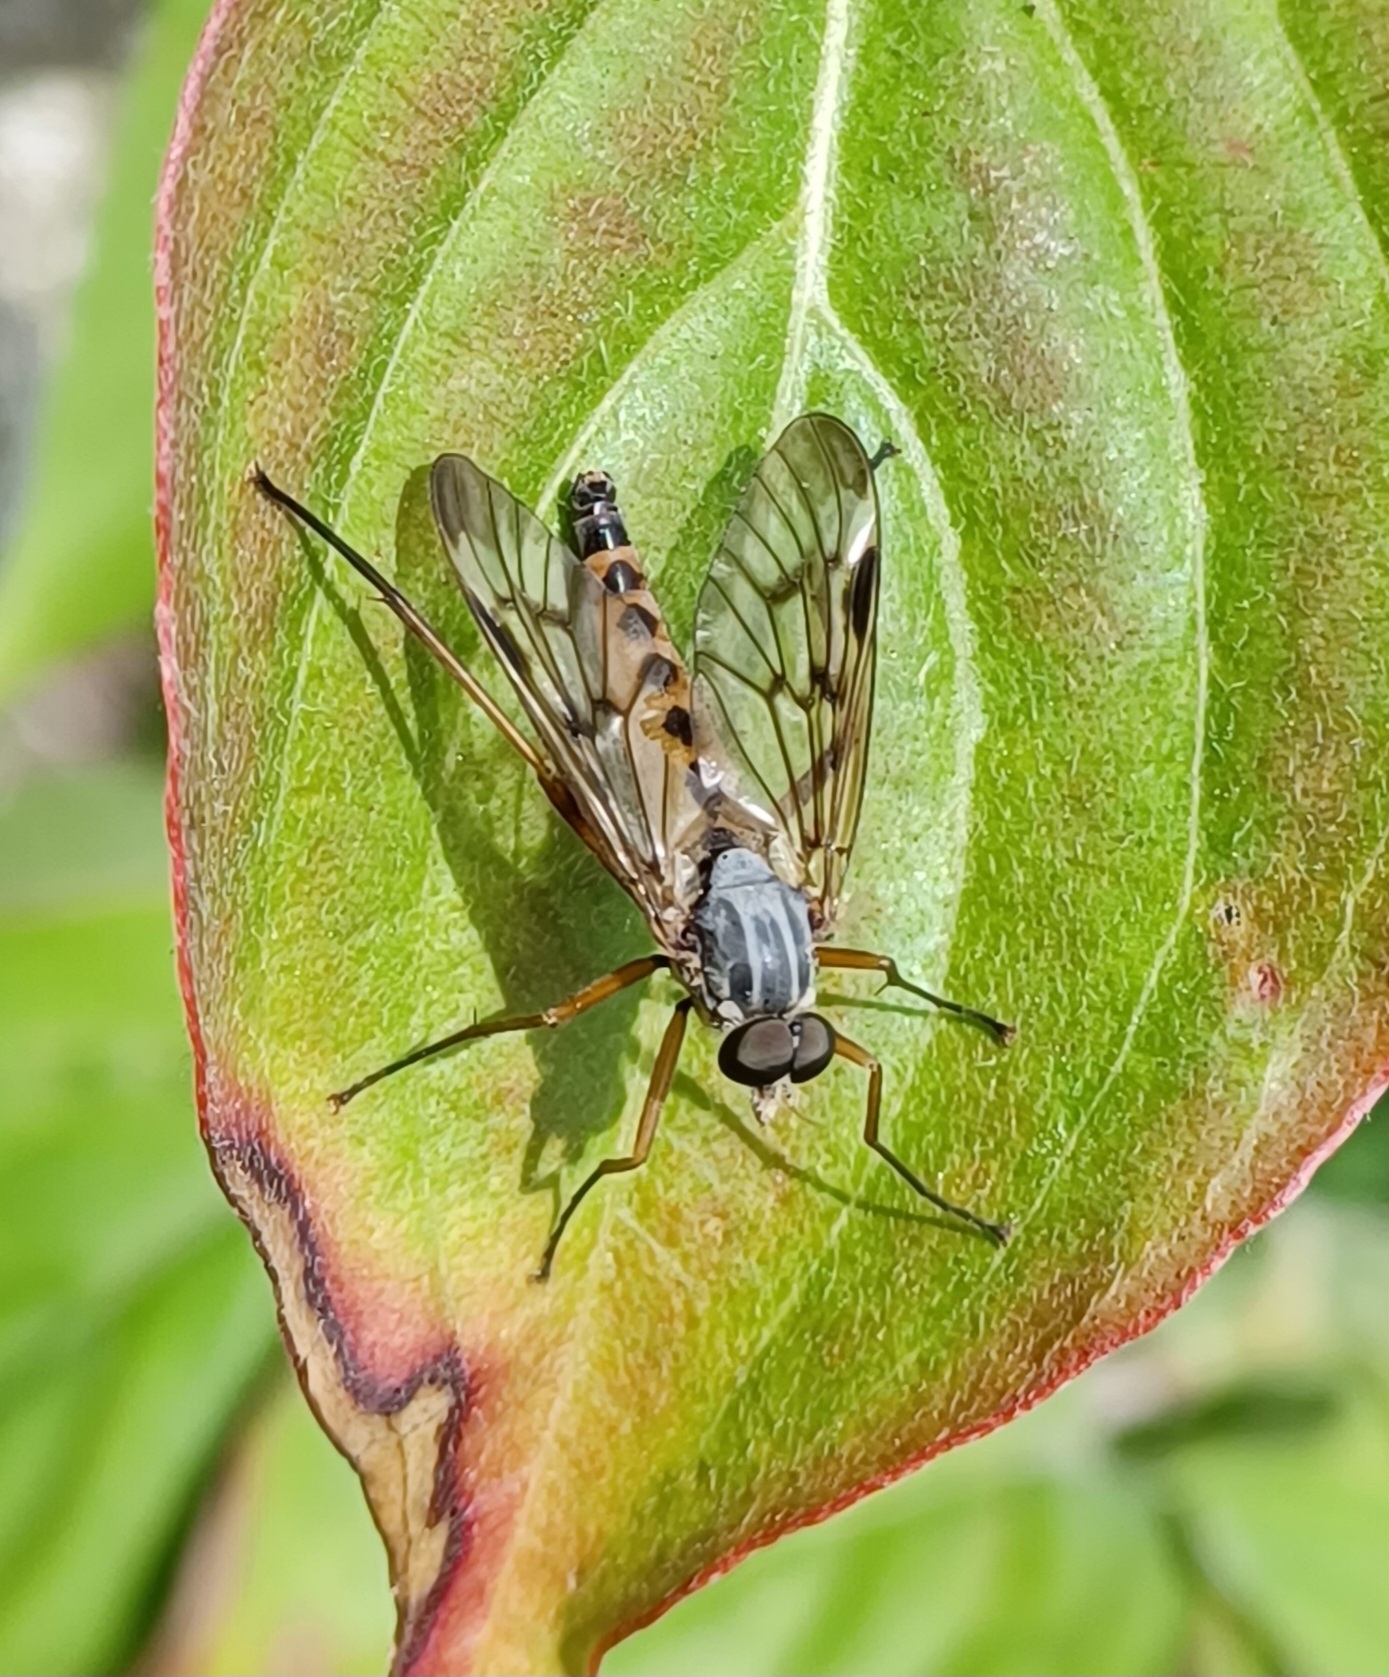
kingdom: Animalia
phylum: Arthropoda
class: Insecta
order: Diptera
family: Rhagionidae
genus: Rhagio
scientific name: Rhagio scolopacea
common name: Downlooker snipefly
